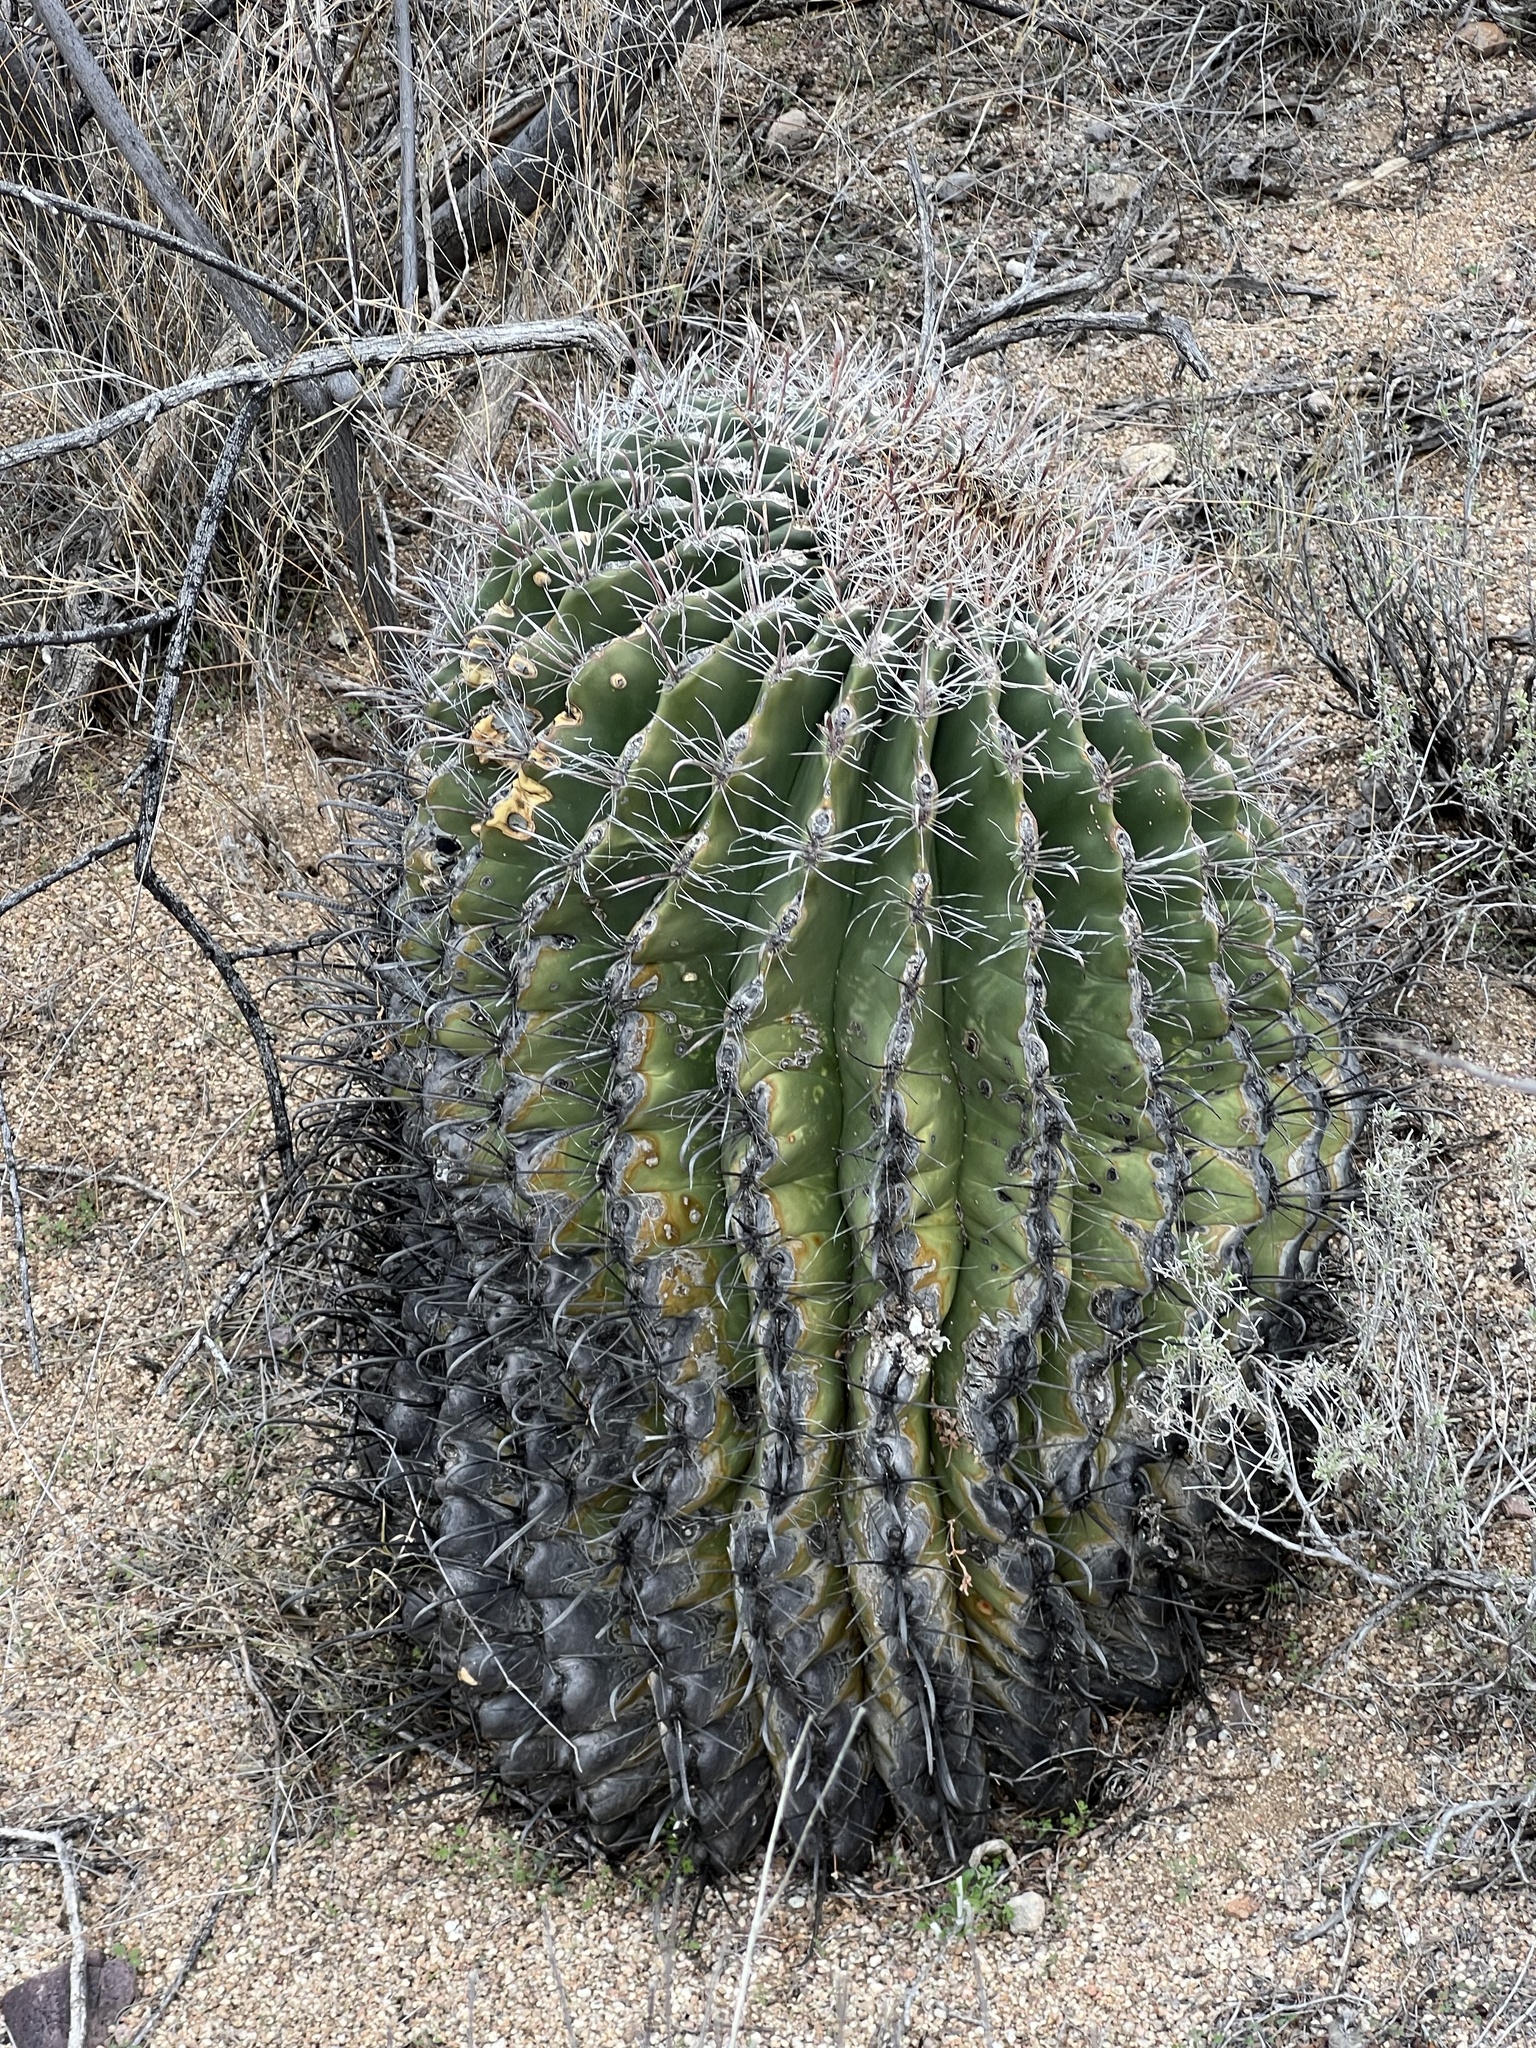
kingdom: Plantae
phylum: Tracheophyta
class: Magnoliopsida
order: Caryophyllales
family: Cactaceae
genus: Ferocactus
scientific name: Ferocactus wislizeni
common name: Candy barrel cactus
